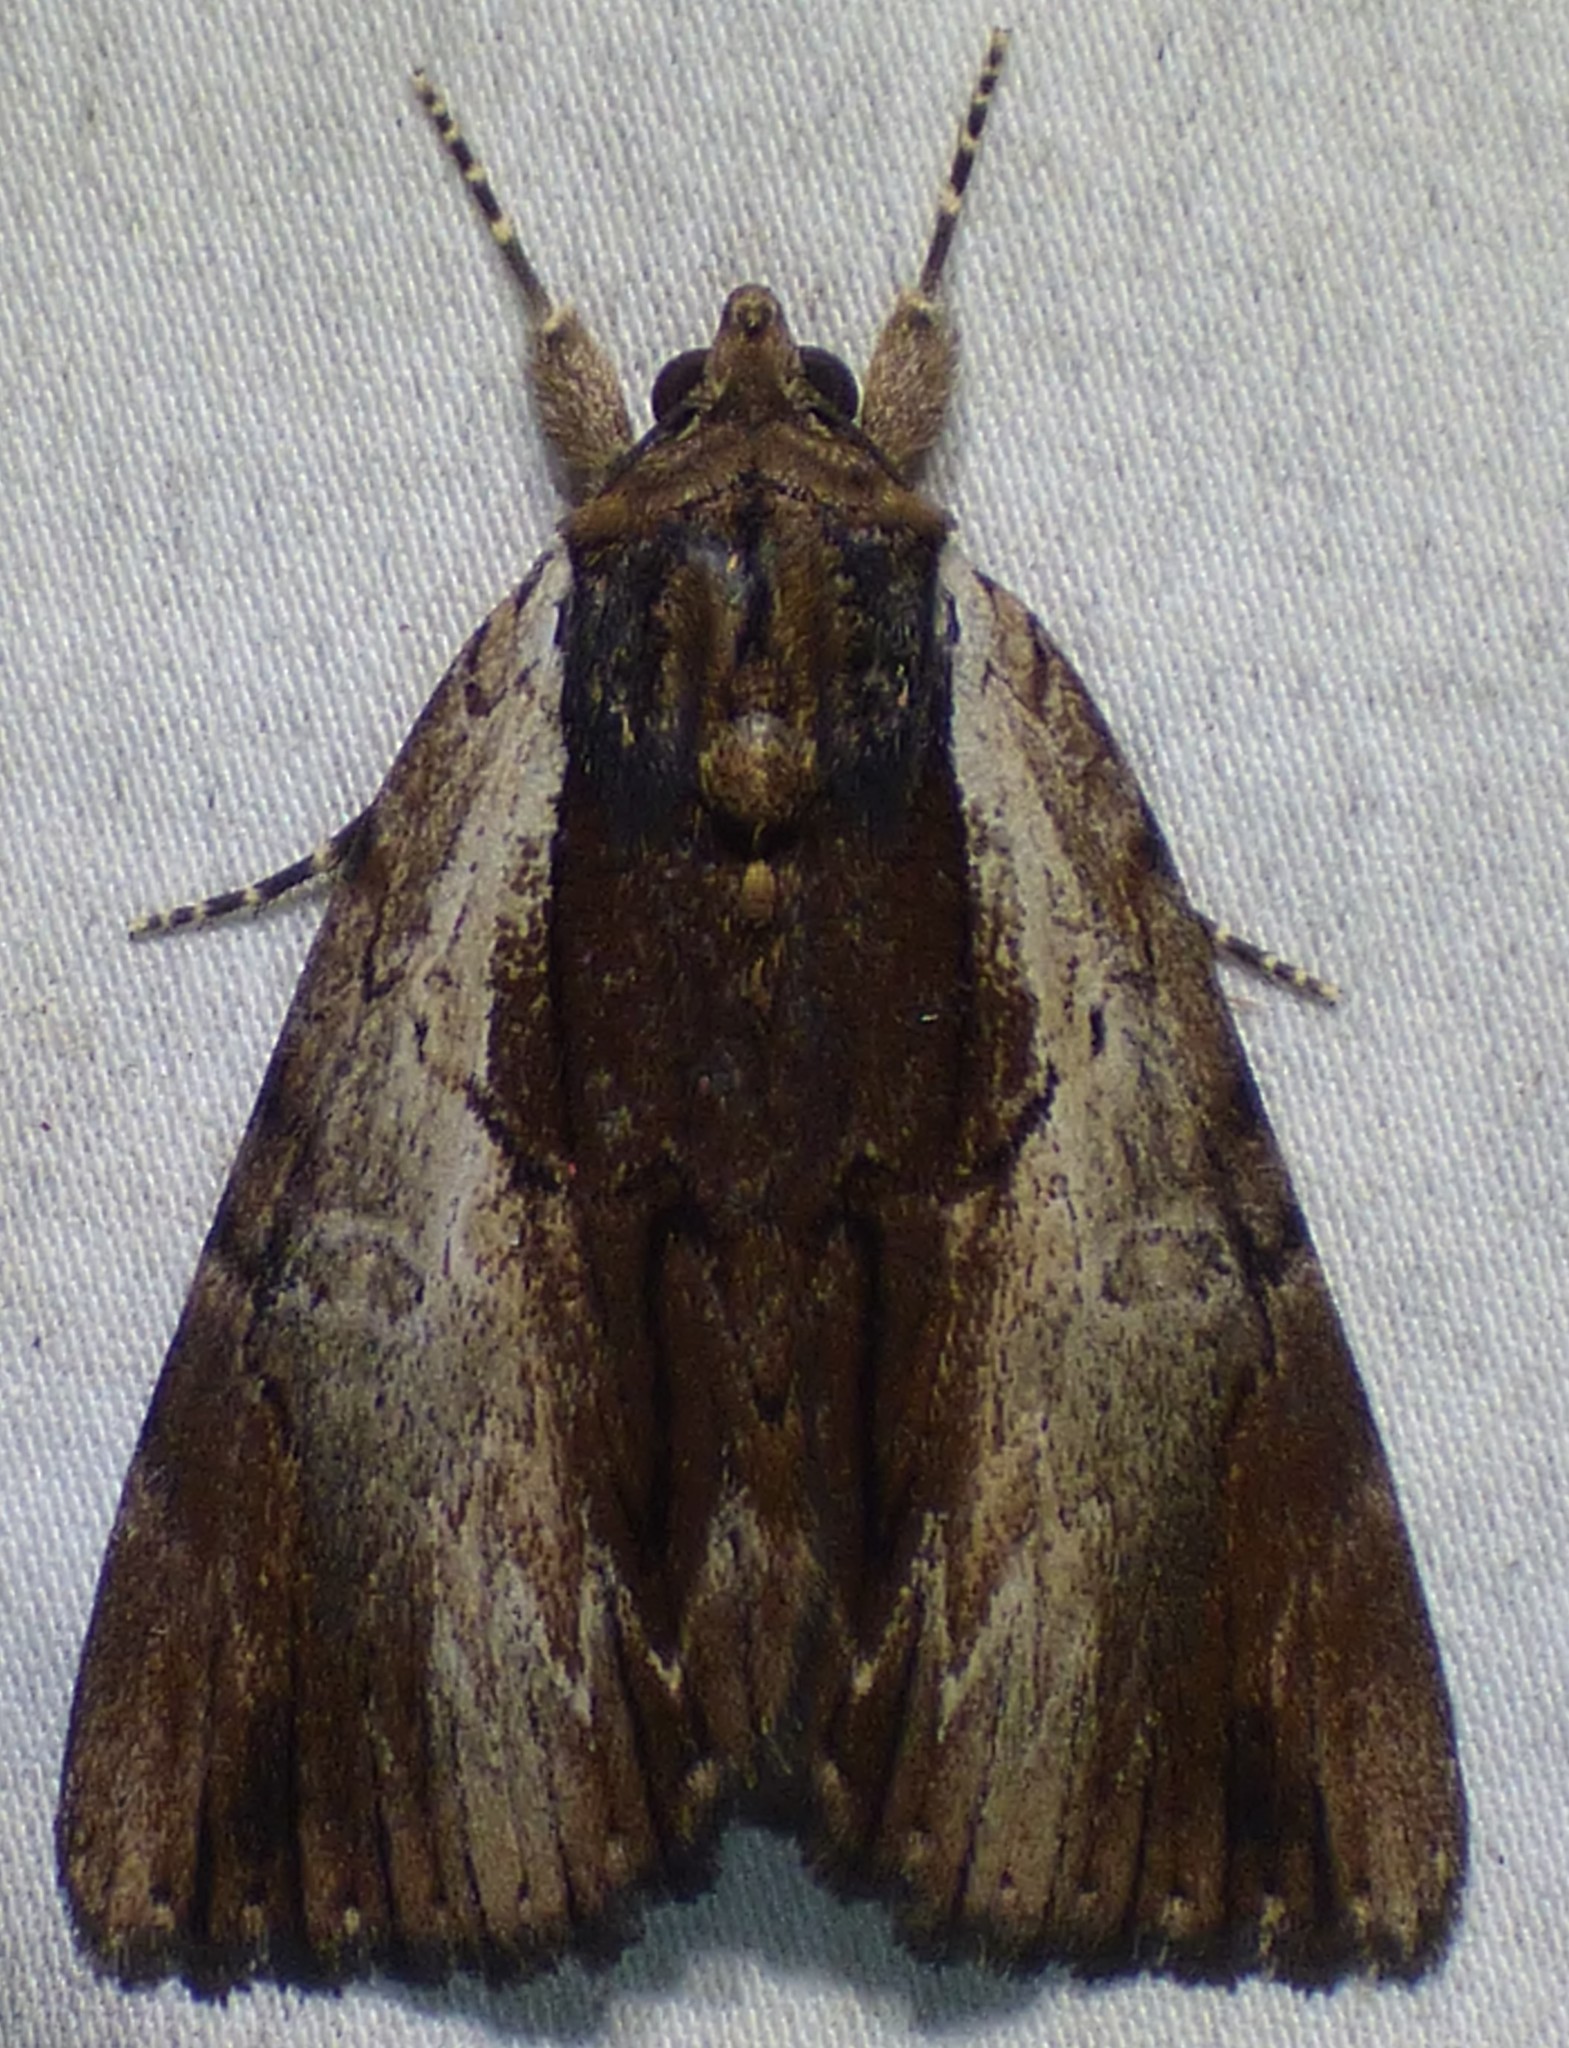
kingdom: Animalia
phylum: Arthropoda
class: Insecta
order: Lepidoptera
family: Erebidae
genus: Catocala
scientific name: Catocala ultronia
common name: Ultronia underwing
